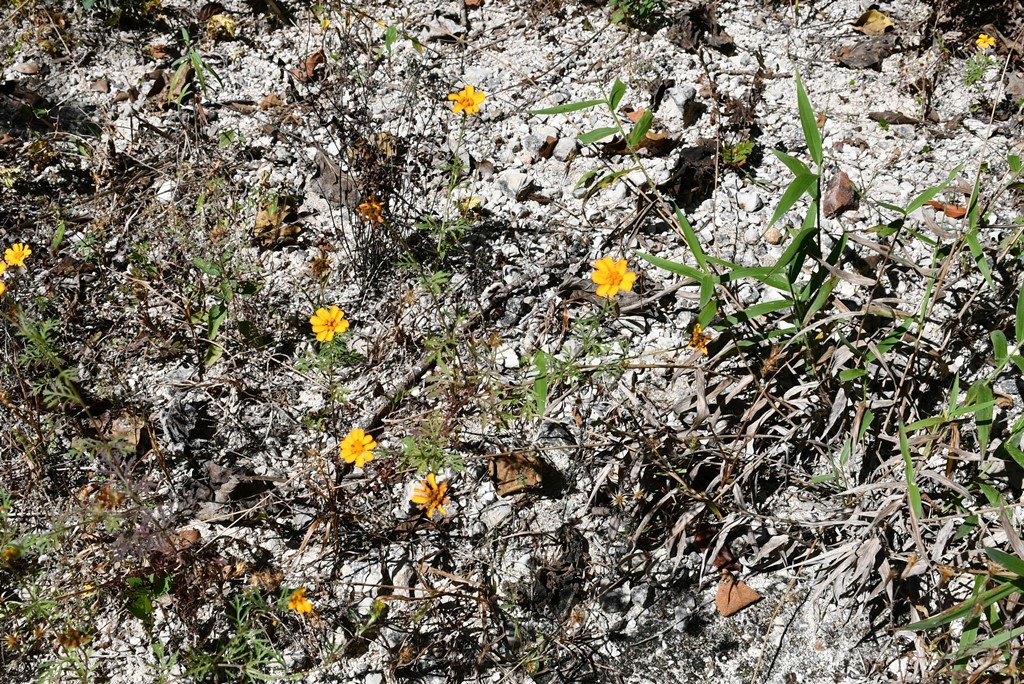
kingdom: Plantae
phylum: Tracheophyta
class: Magnoliopsida
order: Asterales
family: Asteraceae
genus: Dyssodia
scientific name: Dyssodia decipiens
